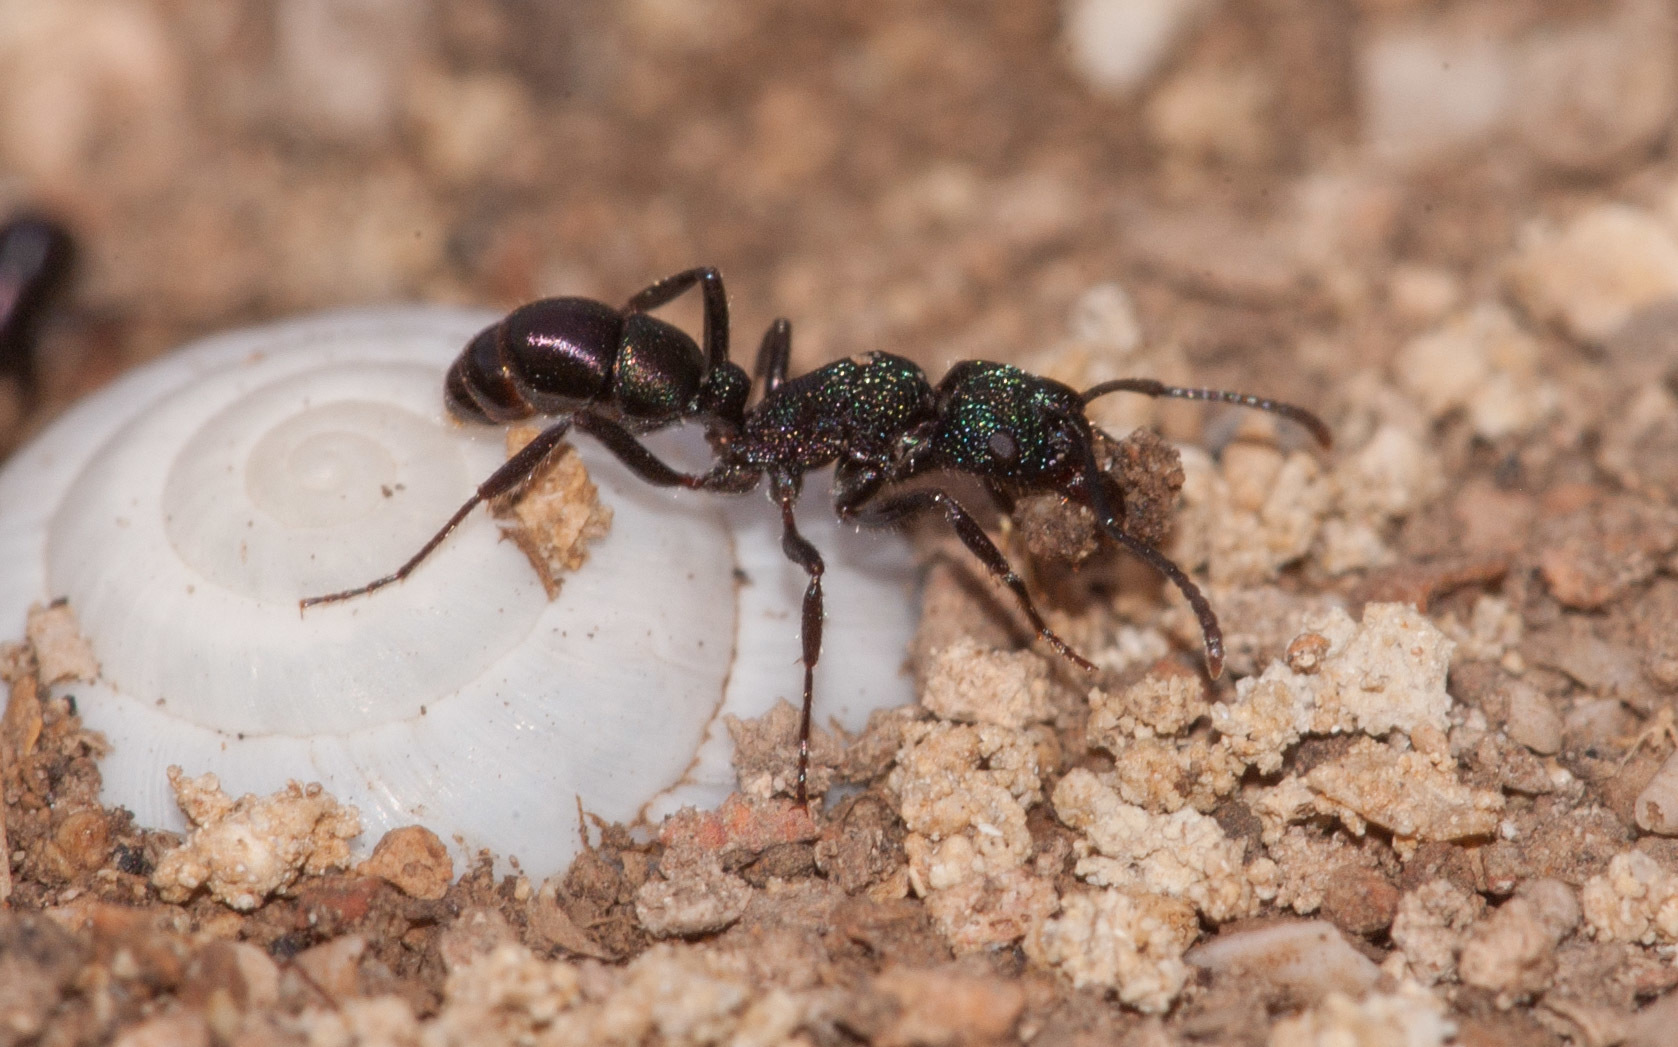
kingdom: Animalia
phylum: Arthropoda
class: Insecta
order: Hymenoptera
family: Formicidae
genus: Rhytidoponera
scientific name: Rhytidoponera metallica
